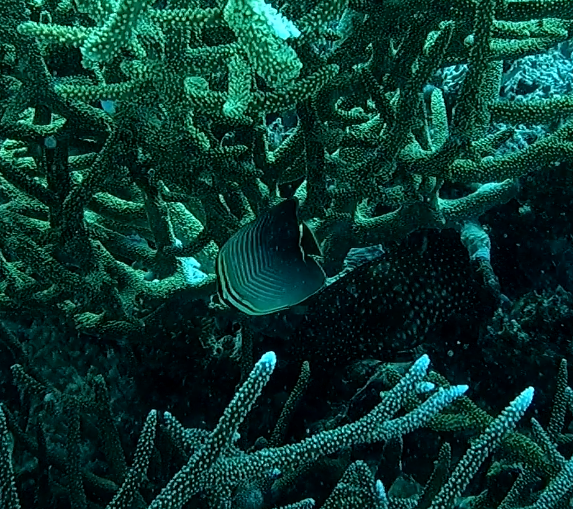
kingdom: Animalia
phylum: Chordata
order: Perciformes
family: Chaetodontidae
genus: Chaetodon
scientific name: Chaetodon baronessa
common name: Triangular butterflyfish
